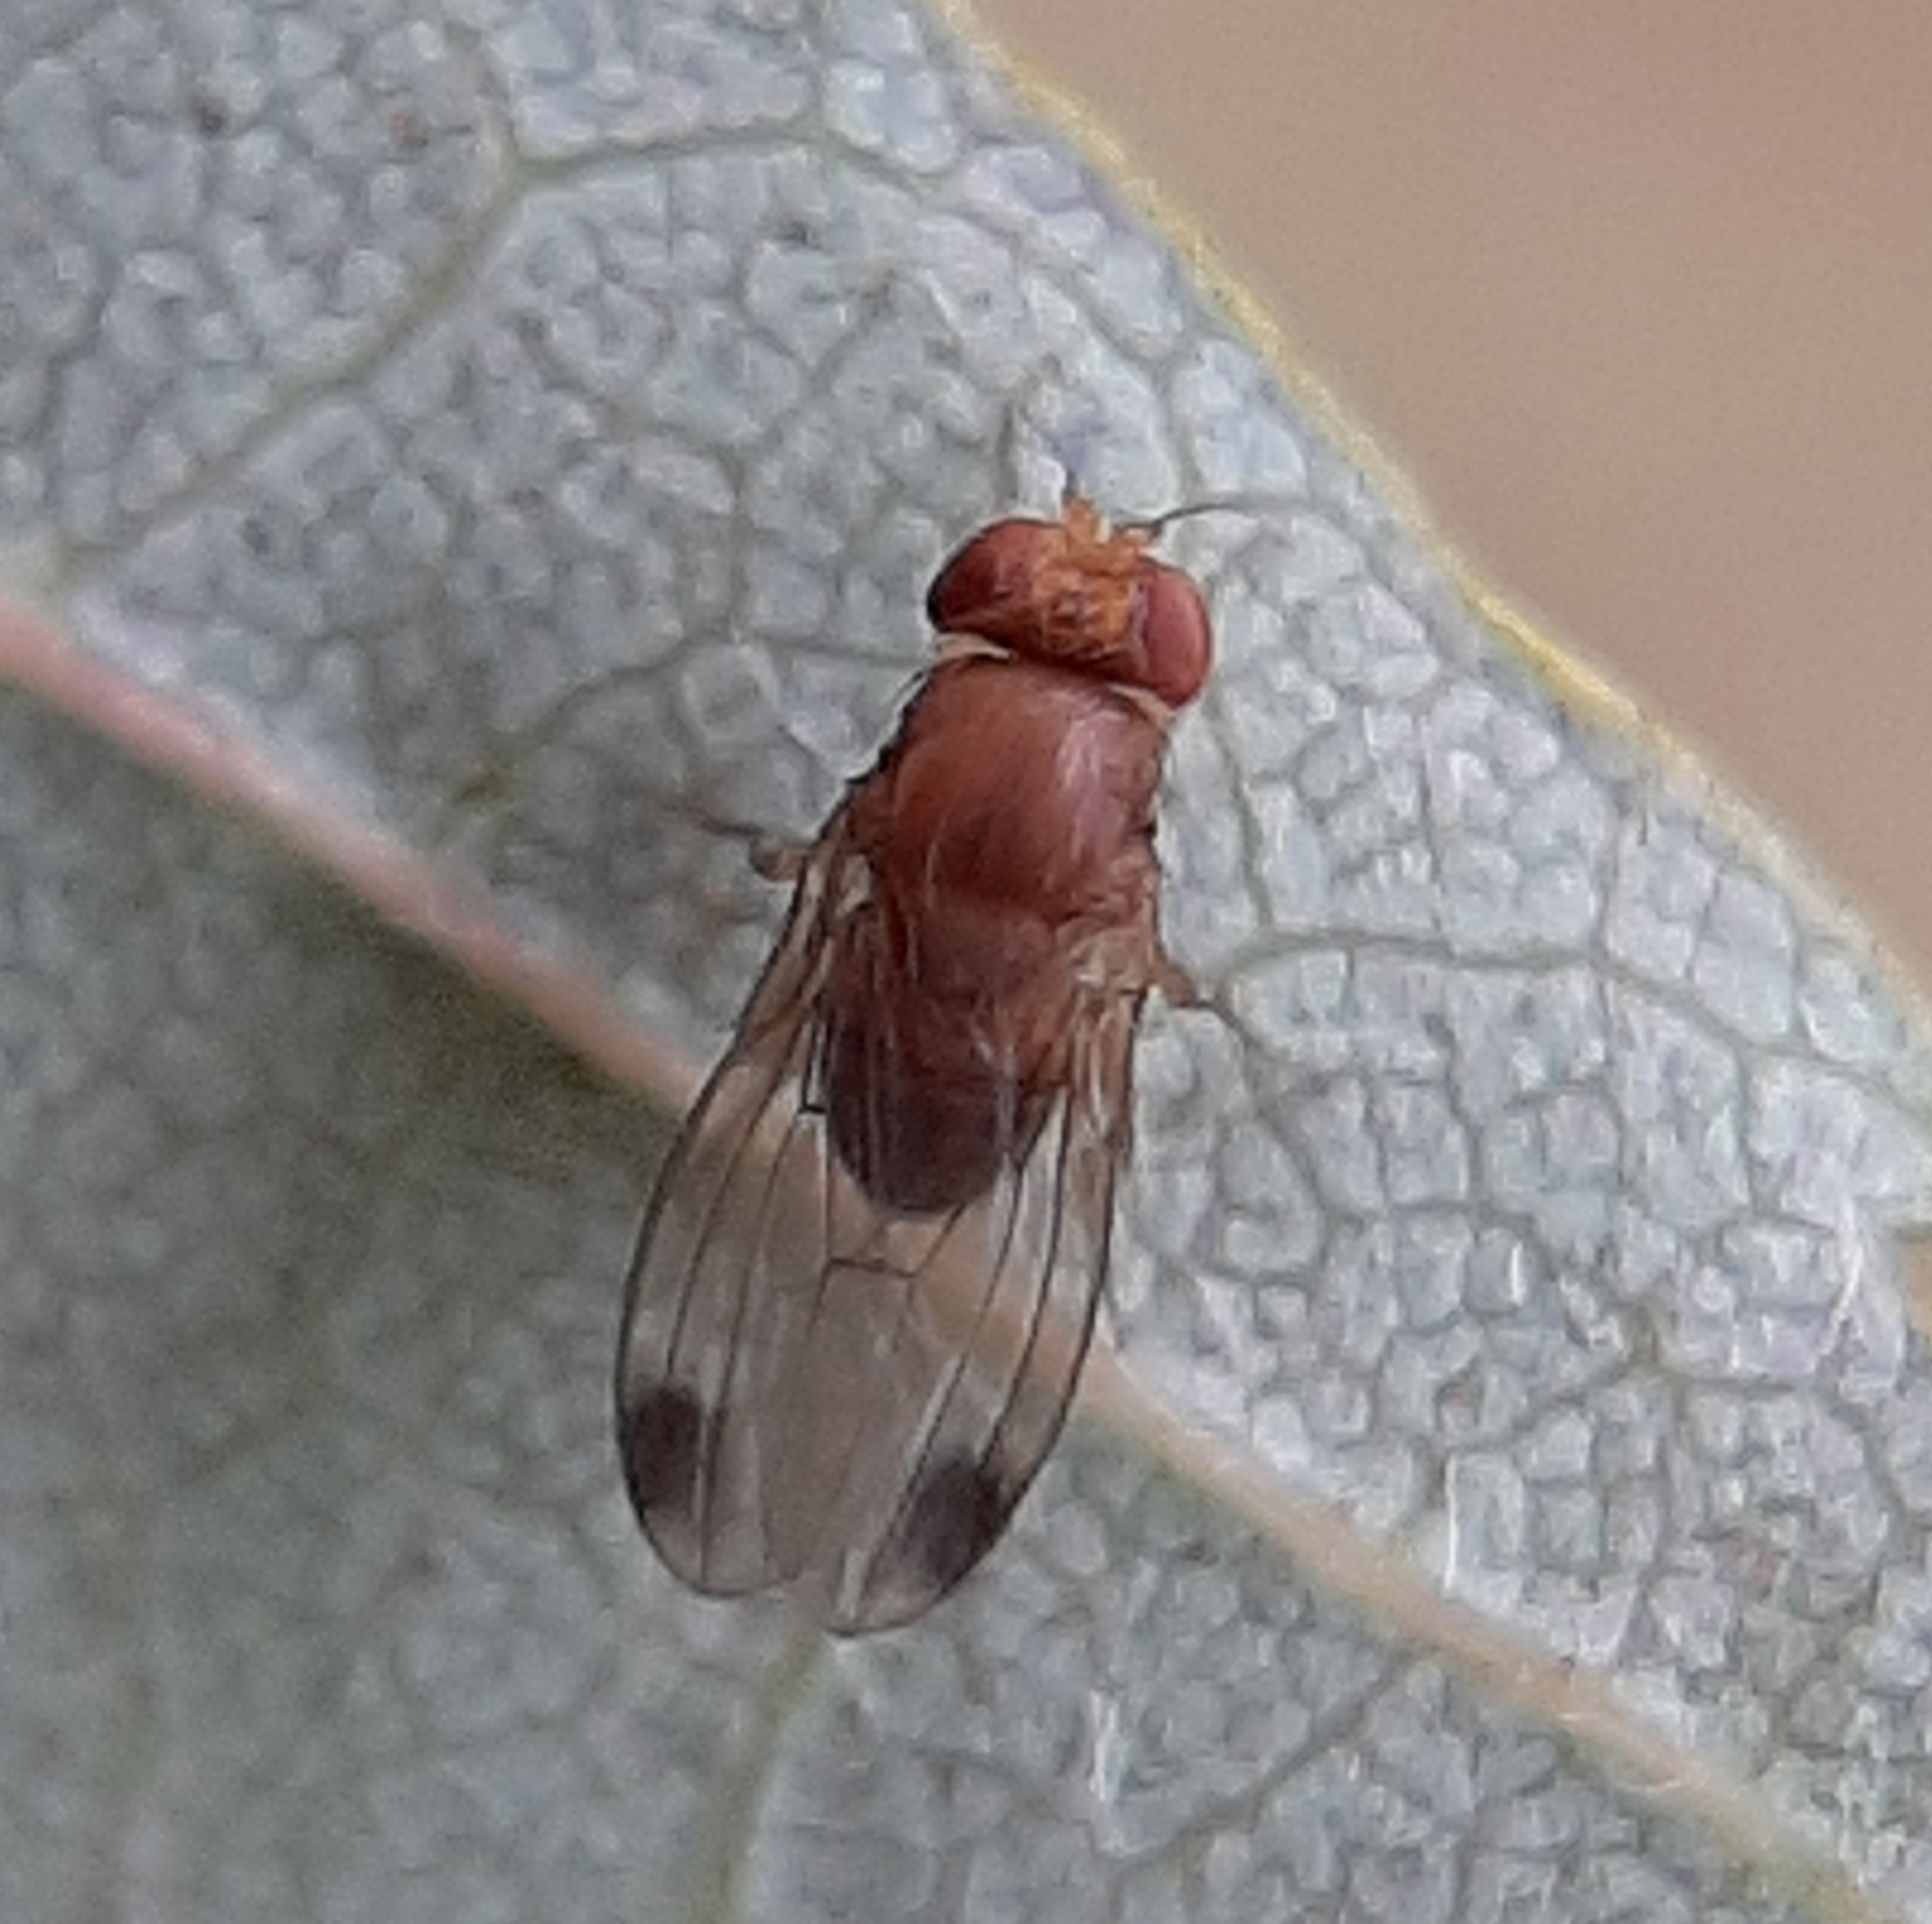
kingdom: Animalia
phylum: Arthropoda
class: Insecta
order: Diptera
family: Drosophilidae
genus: Drosophila
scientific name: Drosophila suzukii
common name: Spotted-wing drosophila
